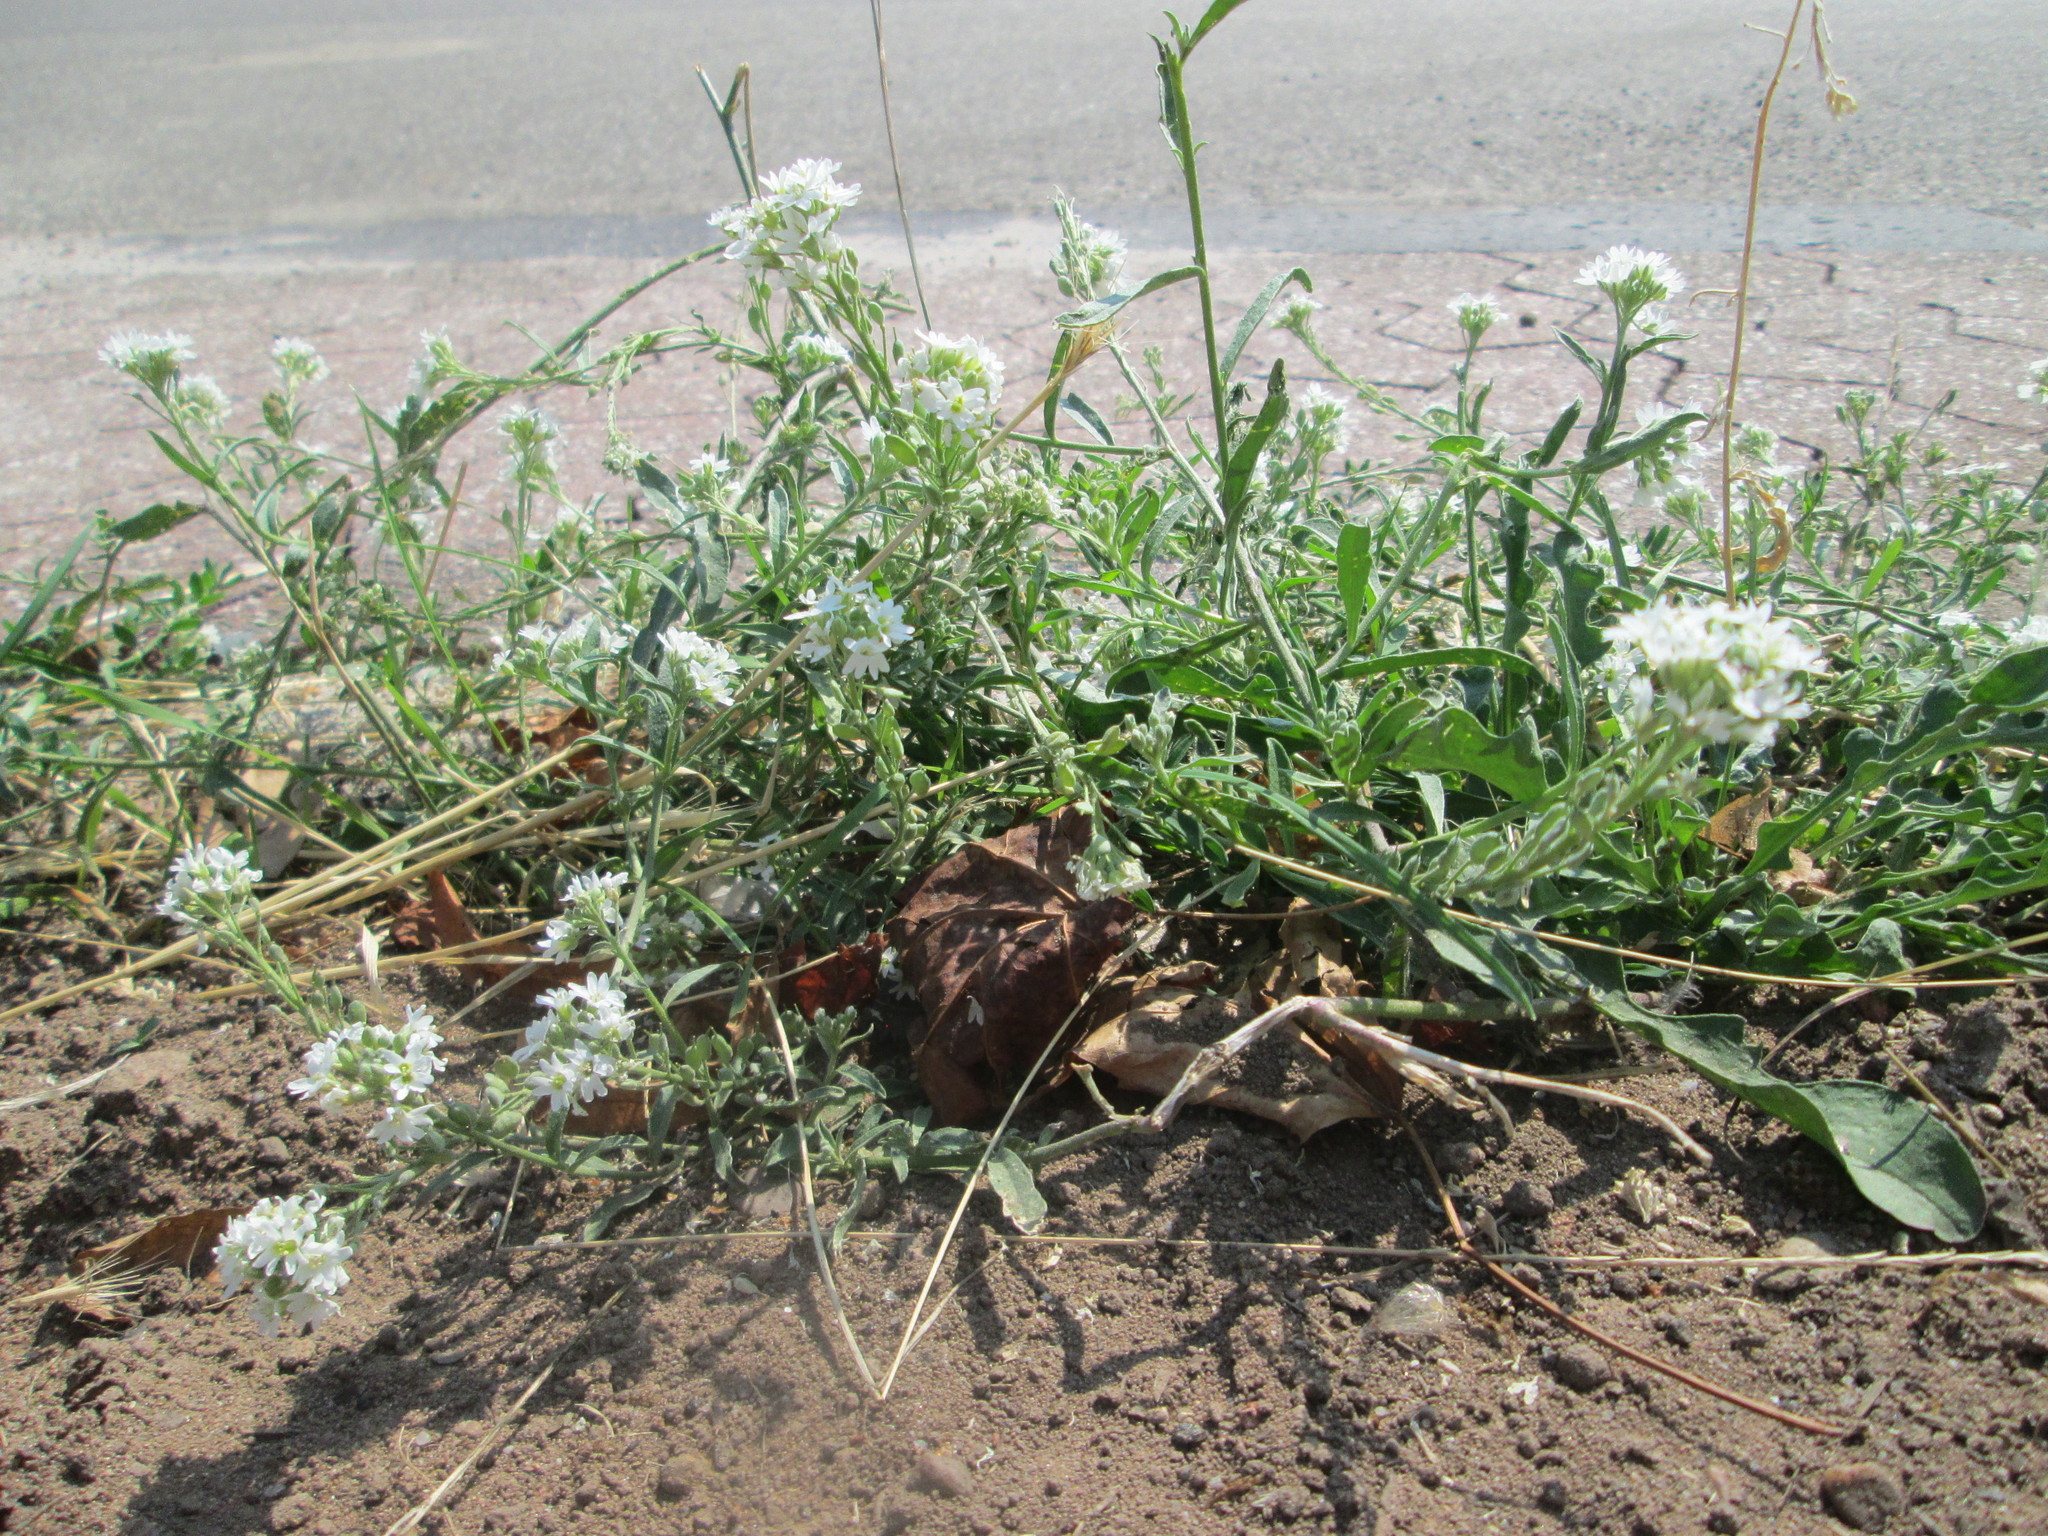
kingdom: Plantae
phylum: Tracheophyta
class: Magnoliopsida
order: Brassicales
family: Brassicaceae
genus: Berteroa
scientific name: Berteroa incana
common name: Hoary alison
